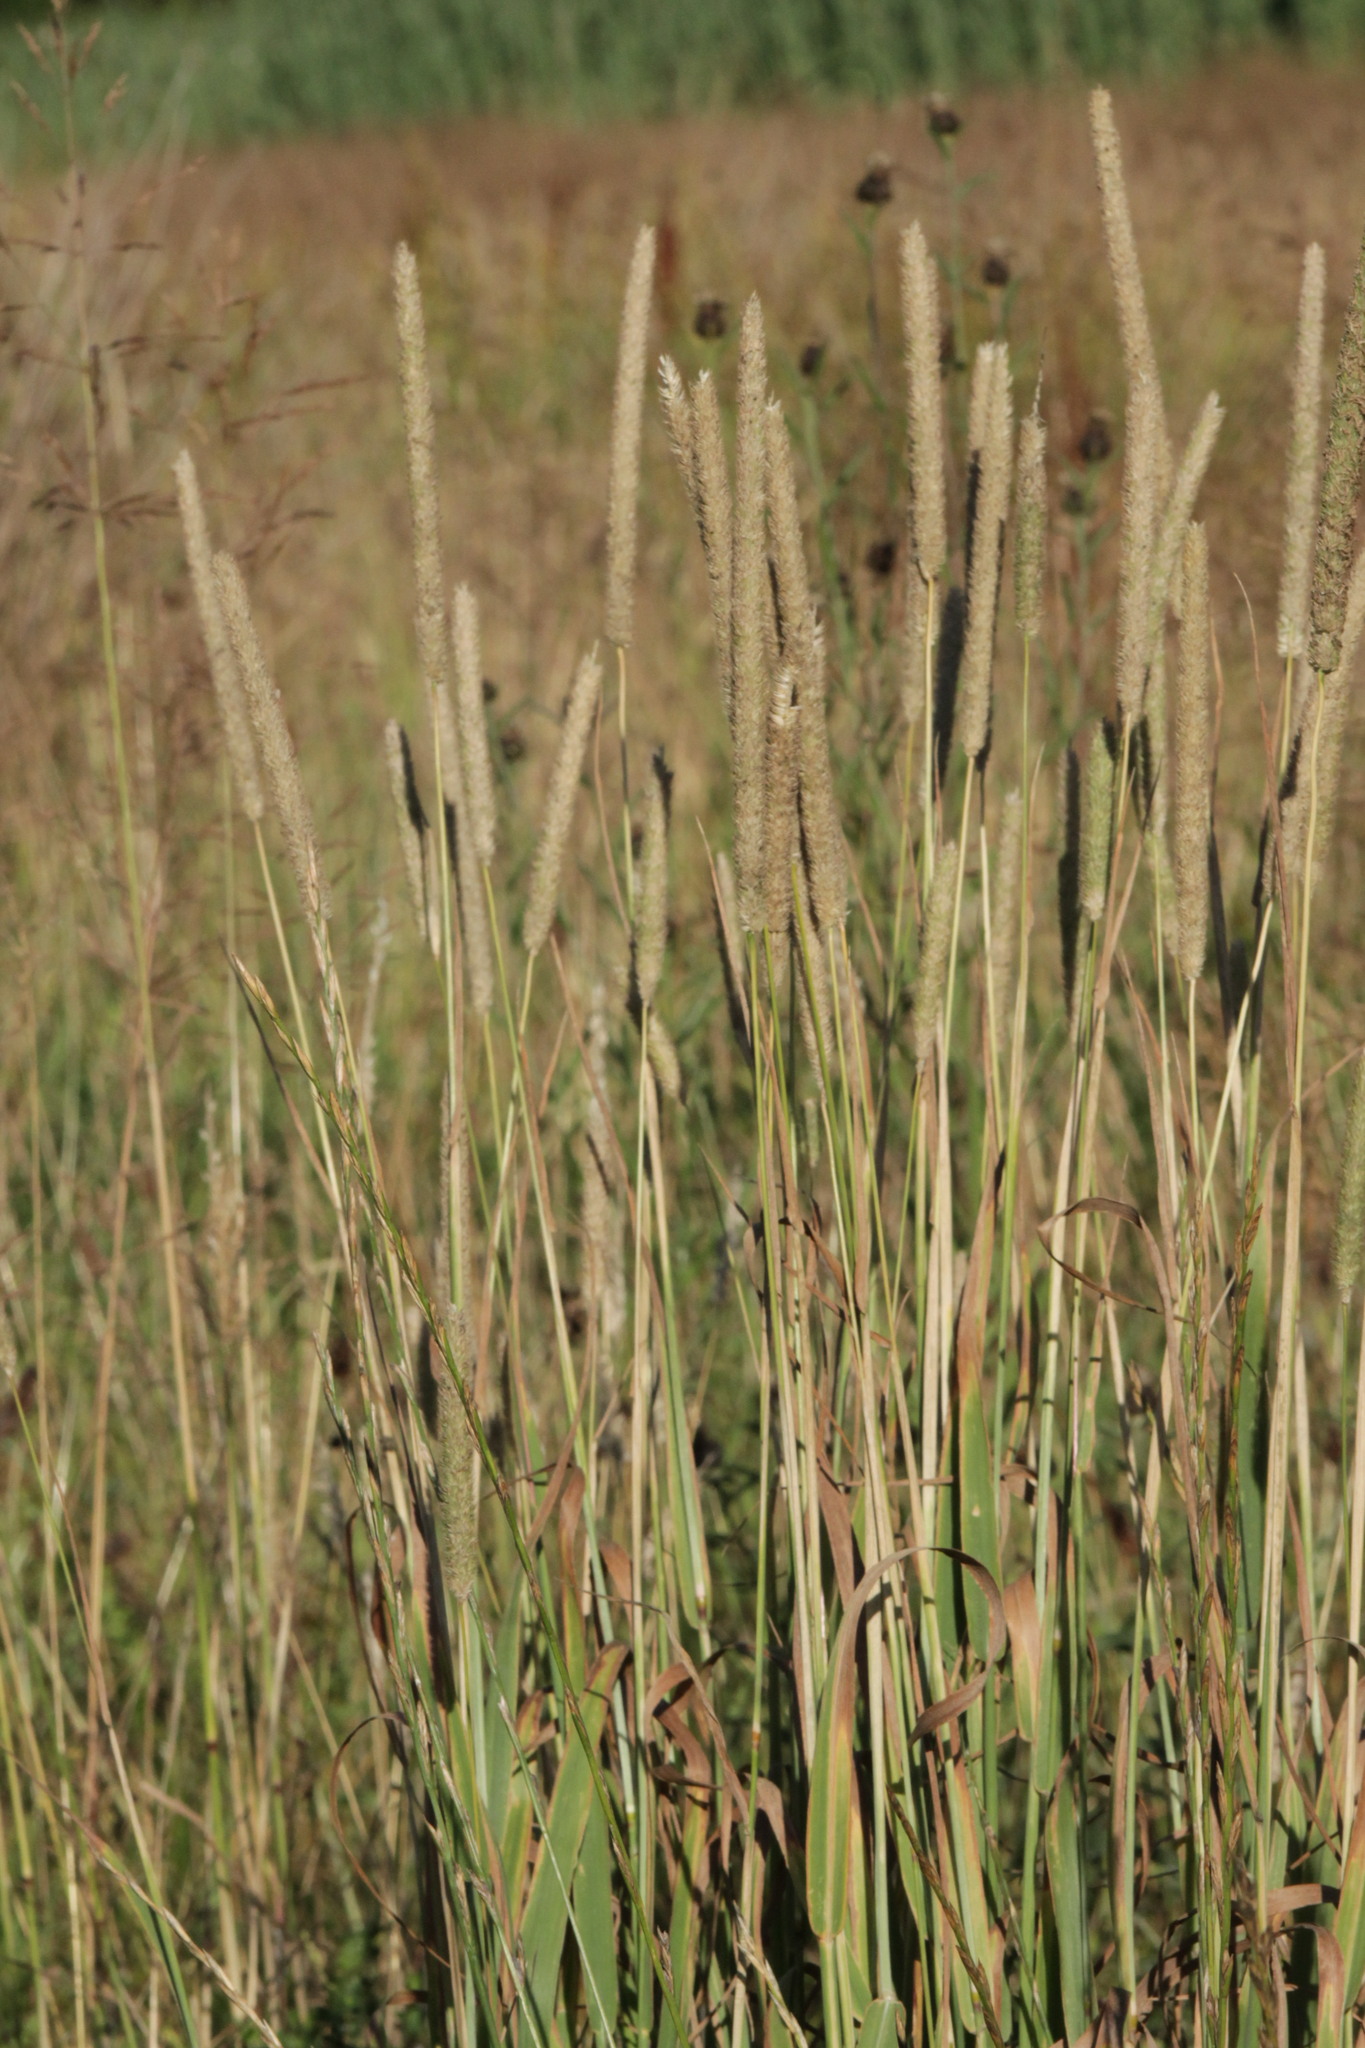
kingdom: Plantae
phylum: Tracheophyta
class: Liliopsida
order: Poales
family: Poaceae
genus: Phleum
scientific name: Phleum pratense
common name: Timothy grass
